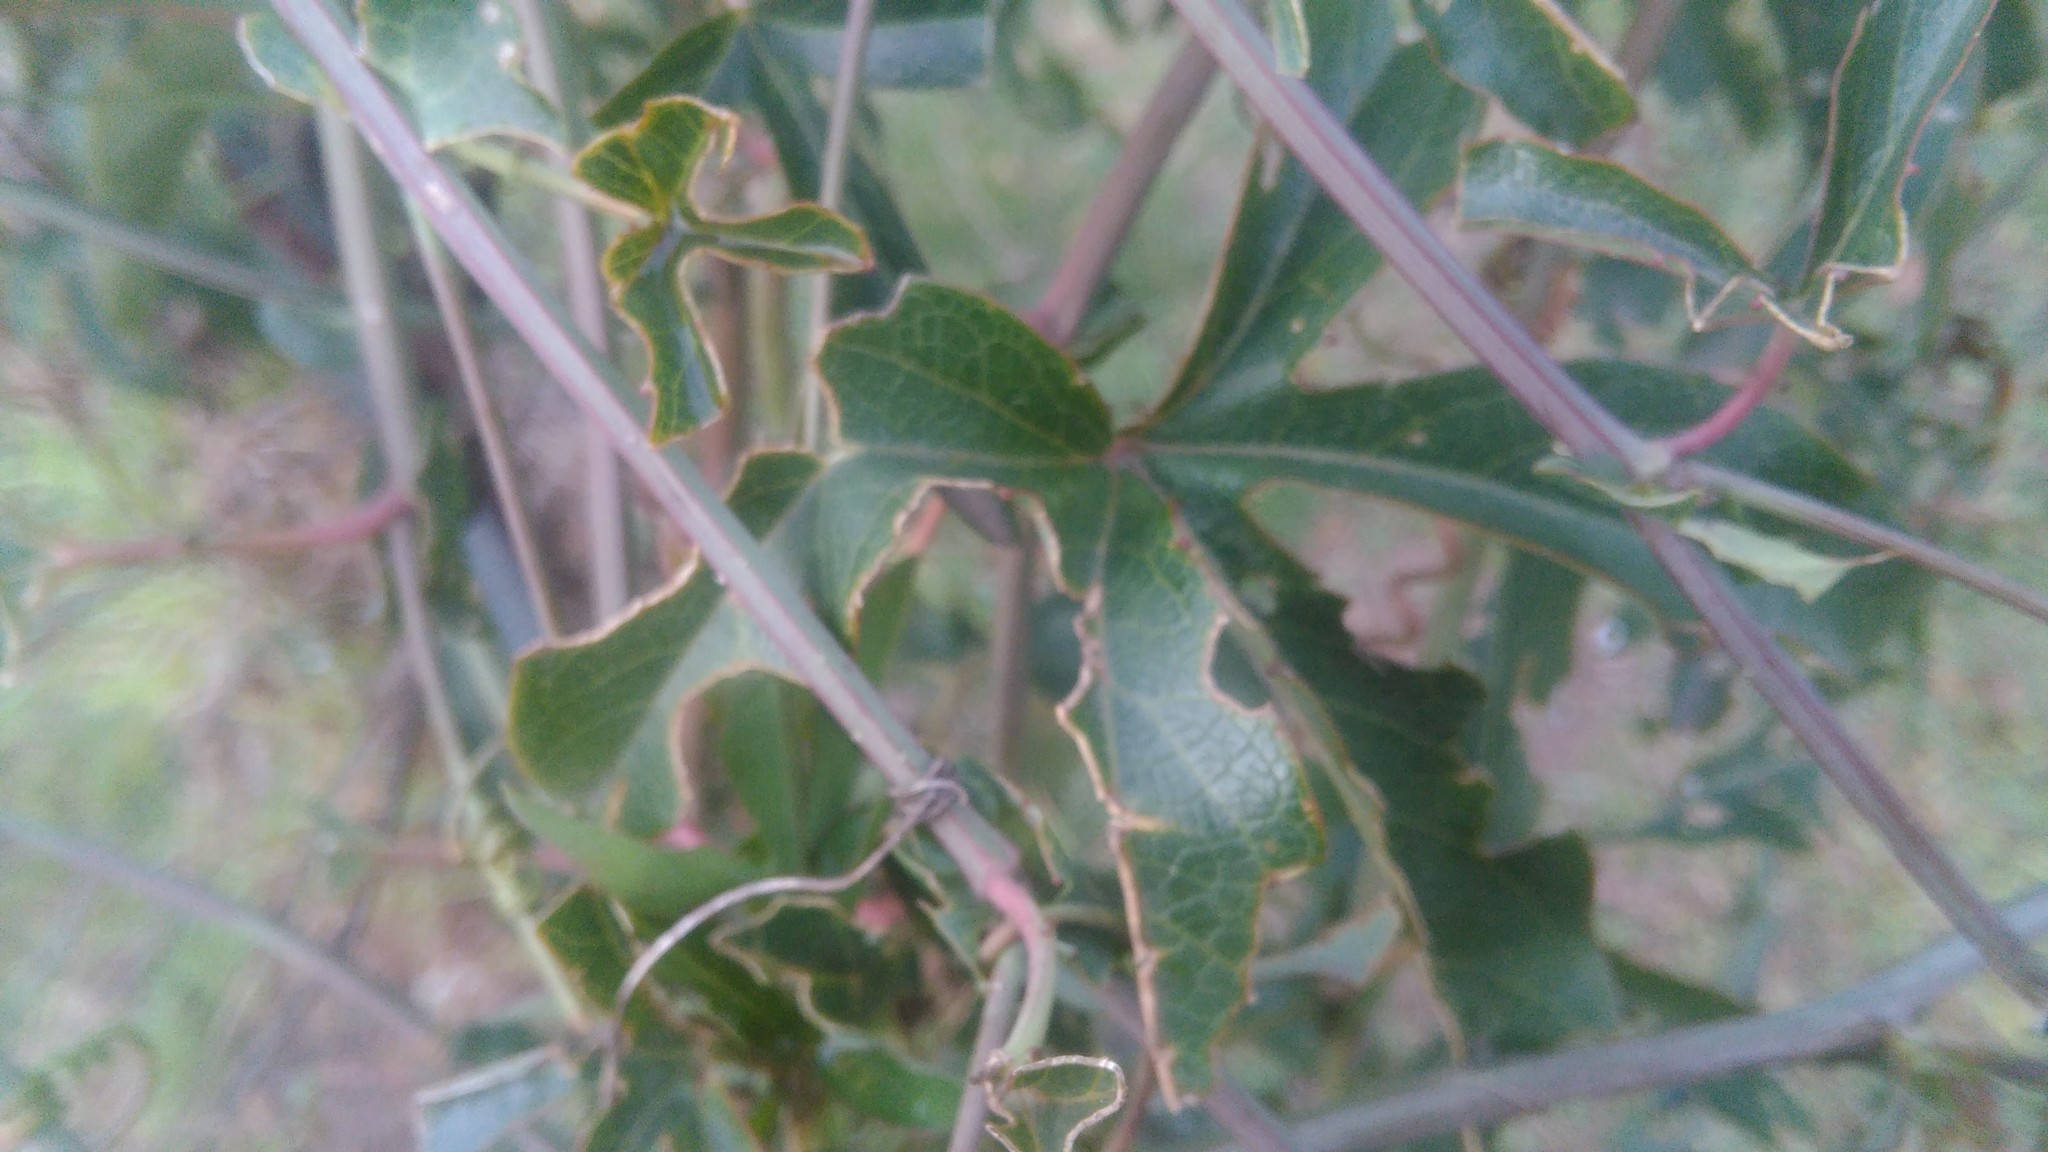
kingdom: Plantae
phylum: Tracheophyta
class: Magnoliopsida
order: Malpighiales
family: Passifloraceae
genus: Passiflora
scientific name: Passiflora caerulea
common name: Blue passionflower
